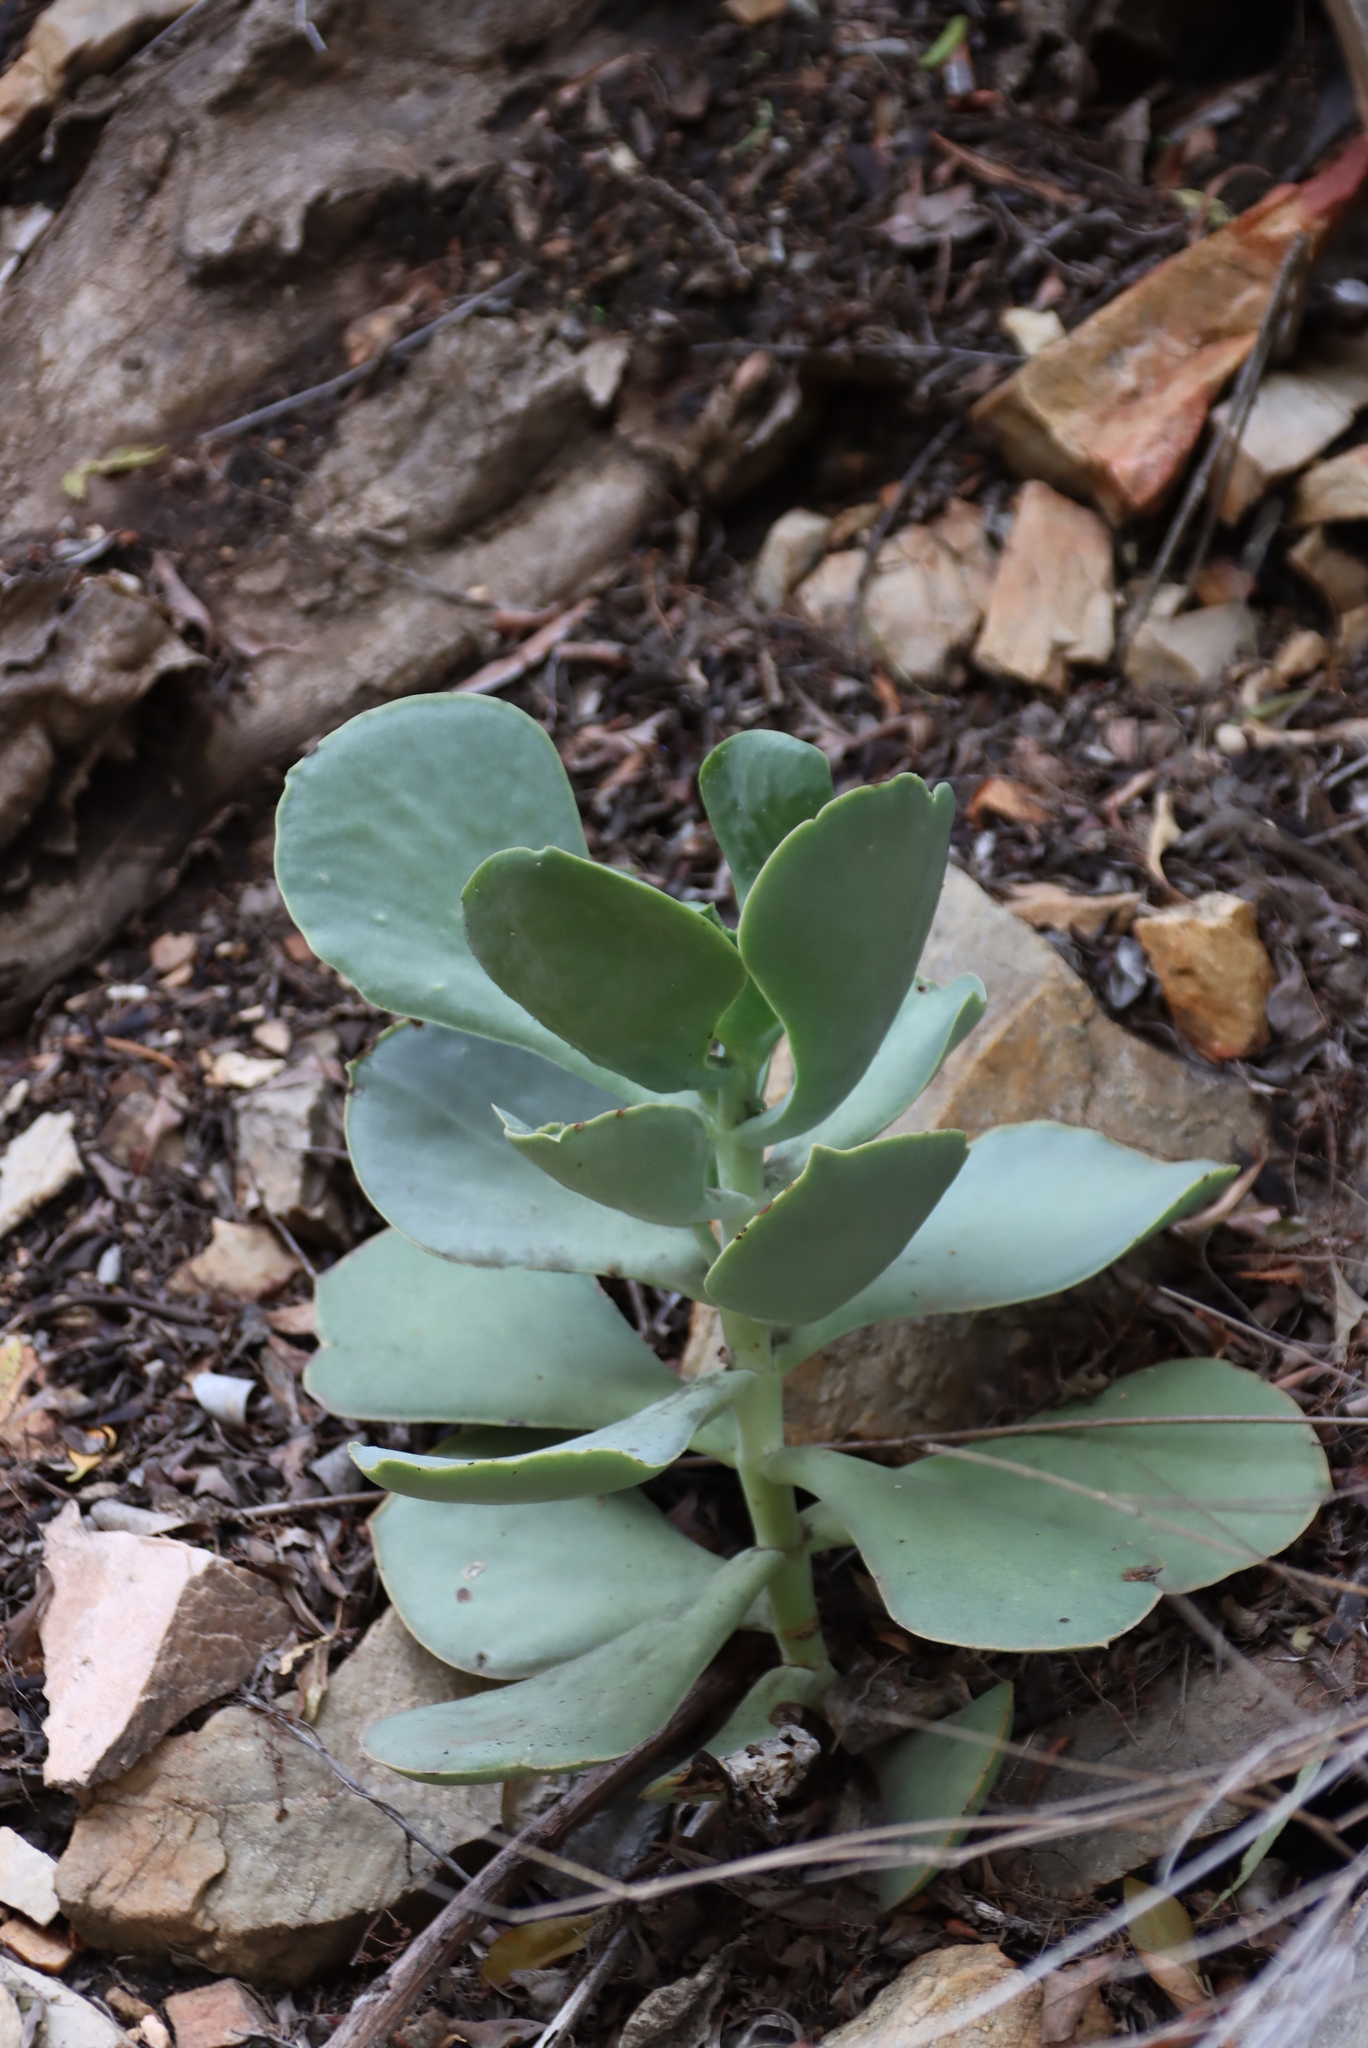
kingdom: Plantae
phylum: Tracheophyta
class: Magnoliopsida
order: Saxifragales
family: Crassulaceae
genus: Cotyledon
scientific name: Cotyledon orbiculata
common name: Pig's ear
